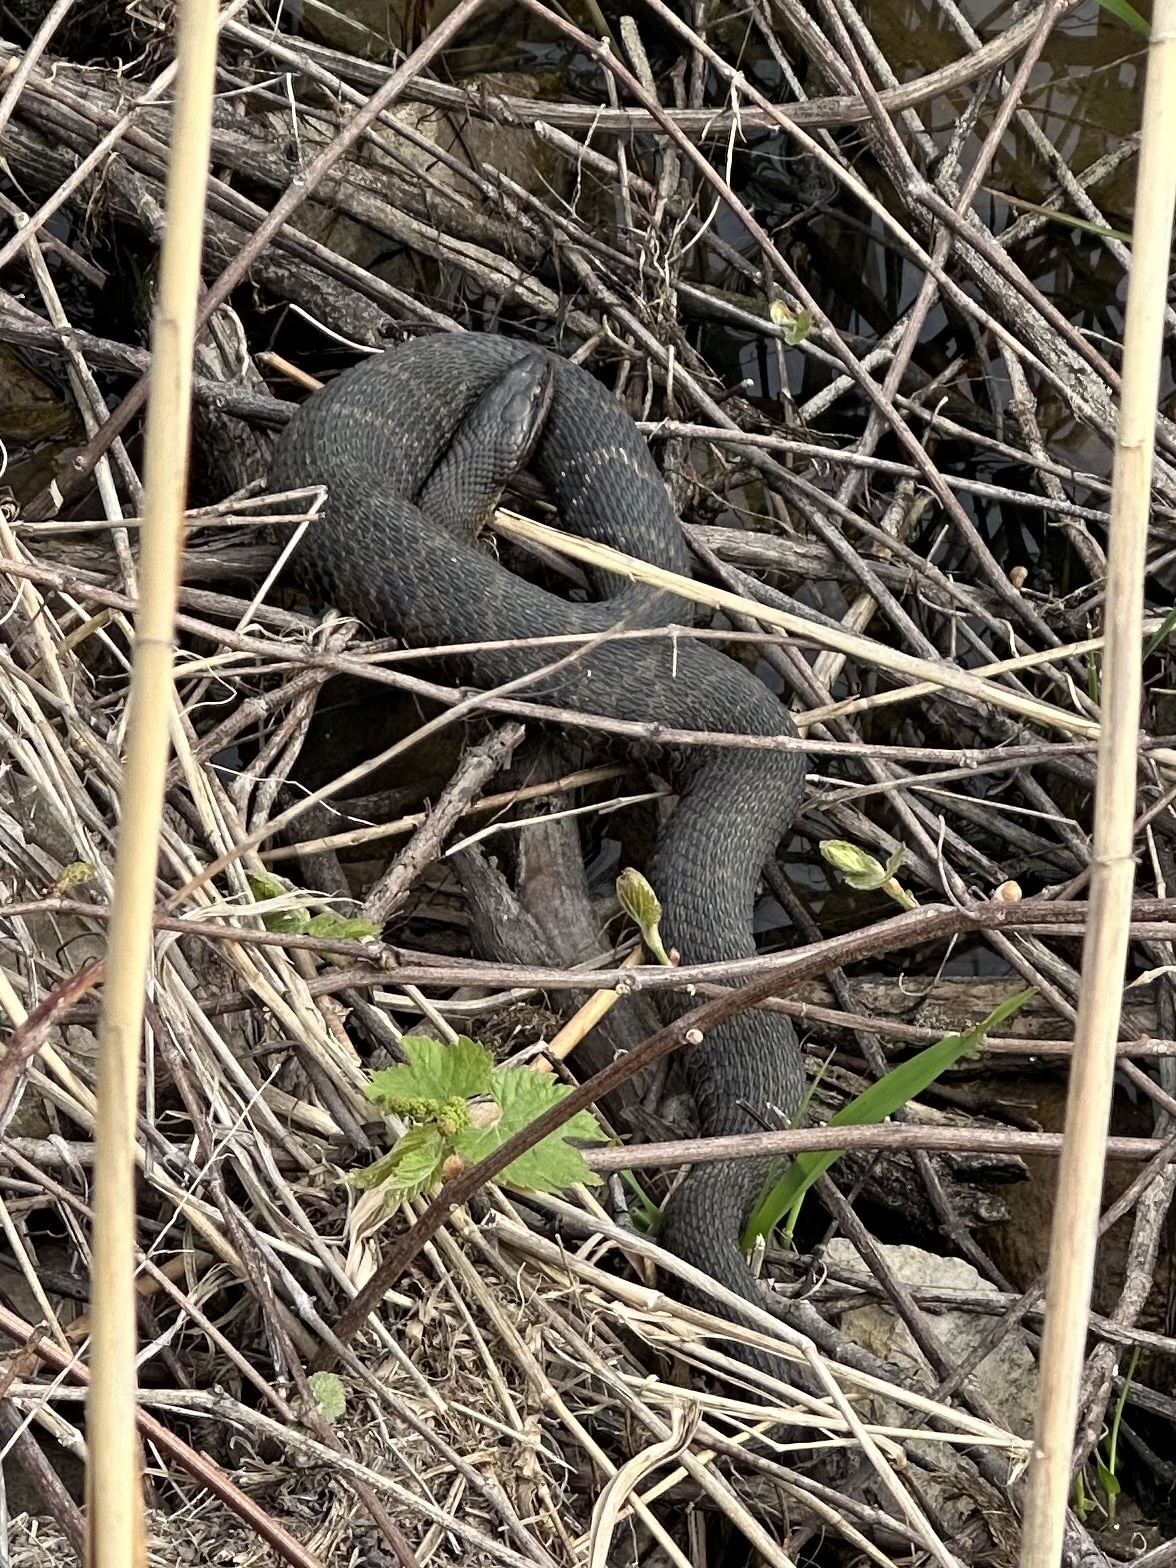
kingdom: Animalia
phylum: Chordata
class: Squamata
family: Colubridae
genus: Nerodia
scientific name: Nerodia sipedon
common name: Northern water snake
